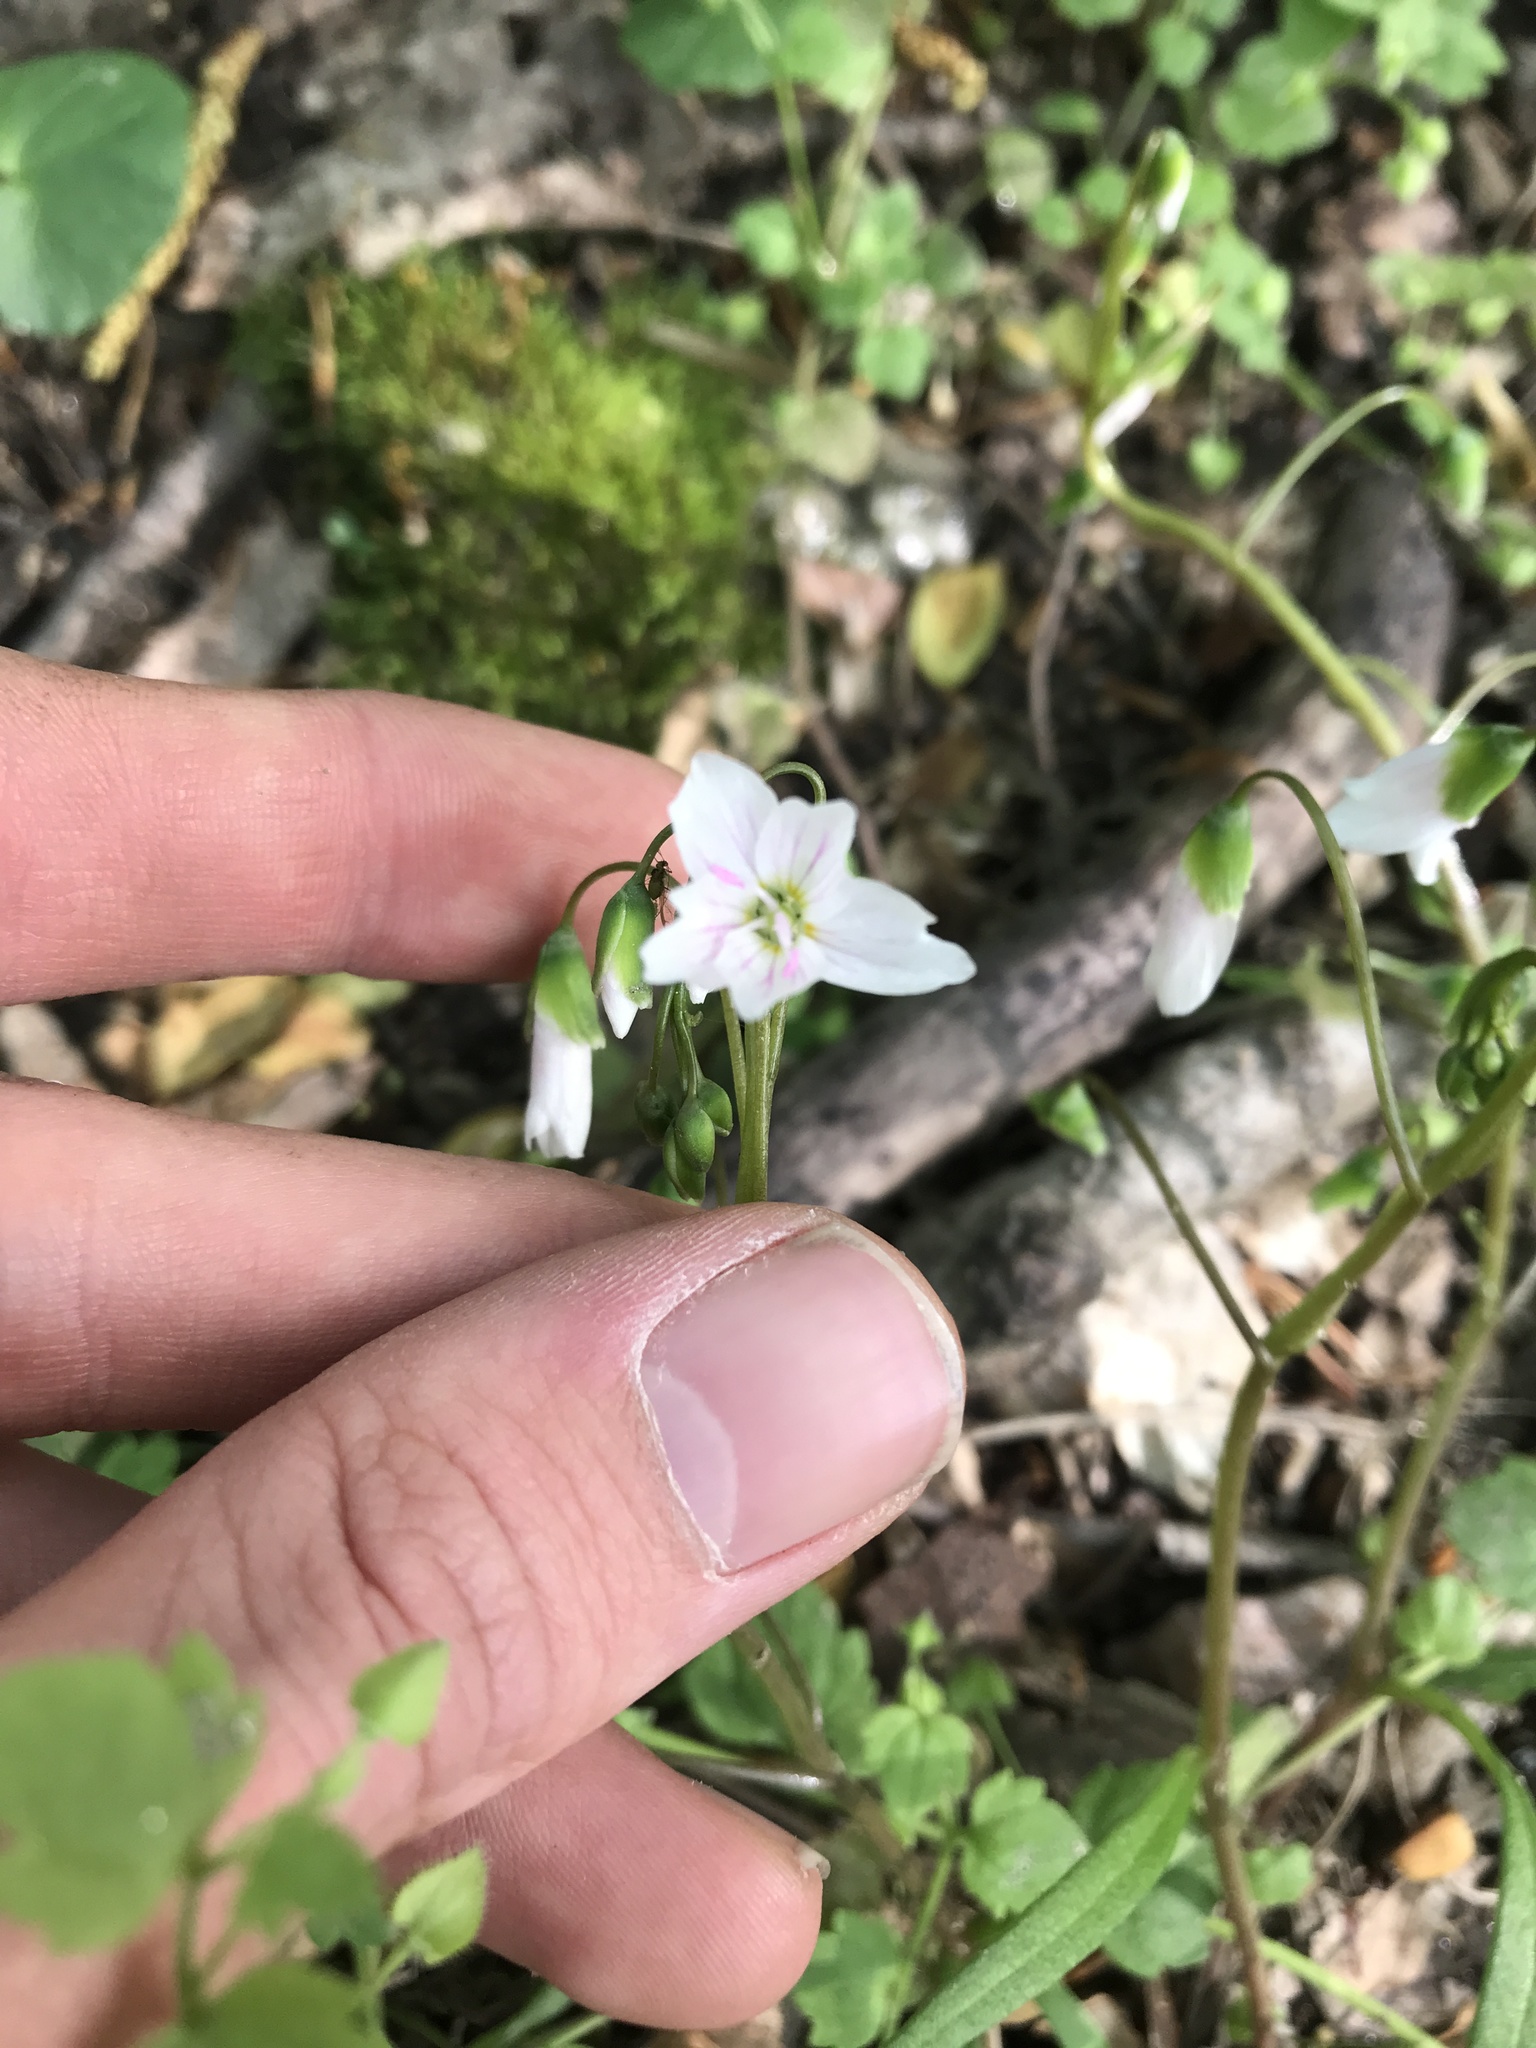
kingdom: Plantae
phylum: Tracheophyta
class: Magnoliopsida
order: Caryophyllales
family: Montiaceae
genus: Claytonia
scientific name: Claytonia virginica
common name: Virginia springbeauty
